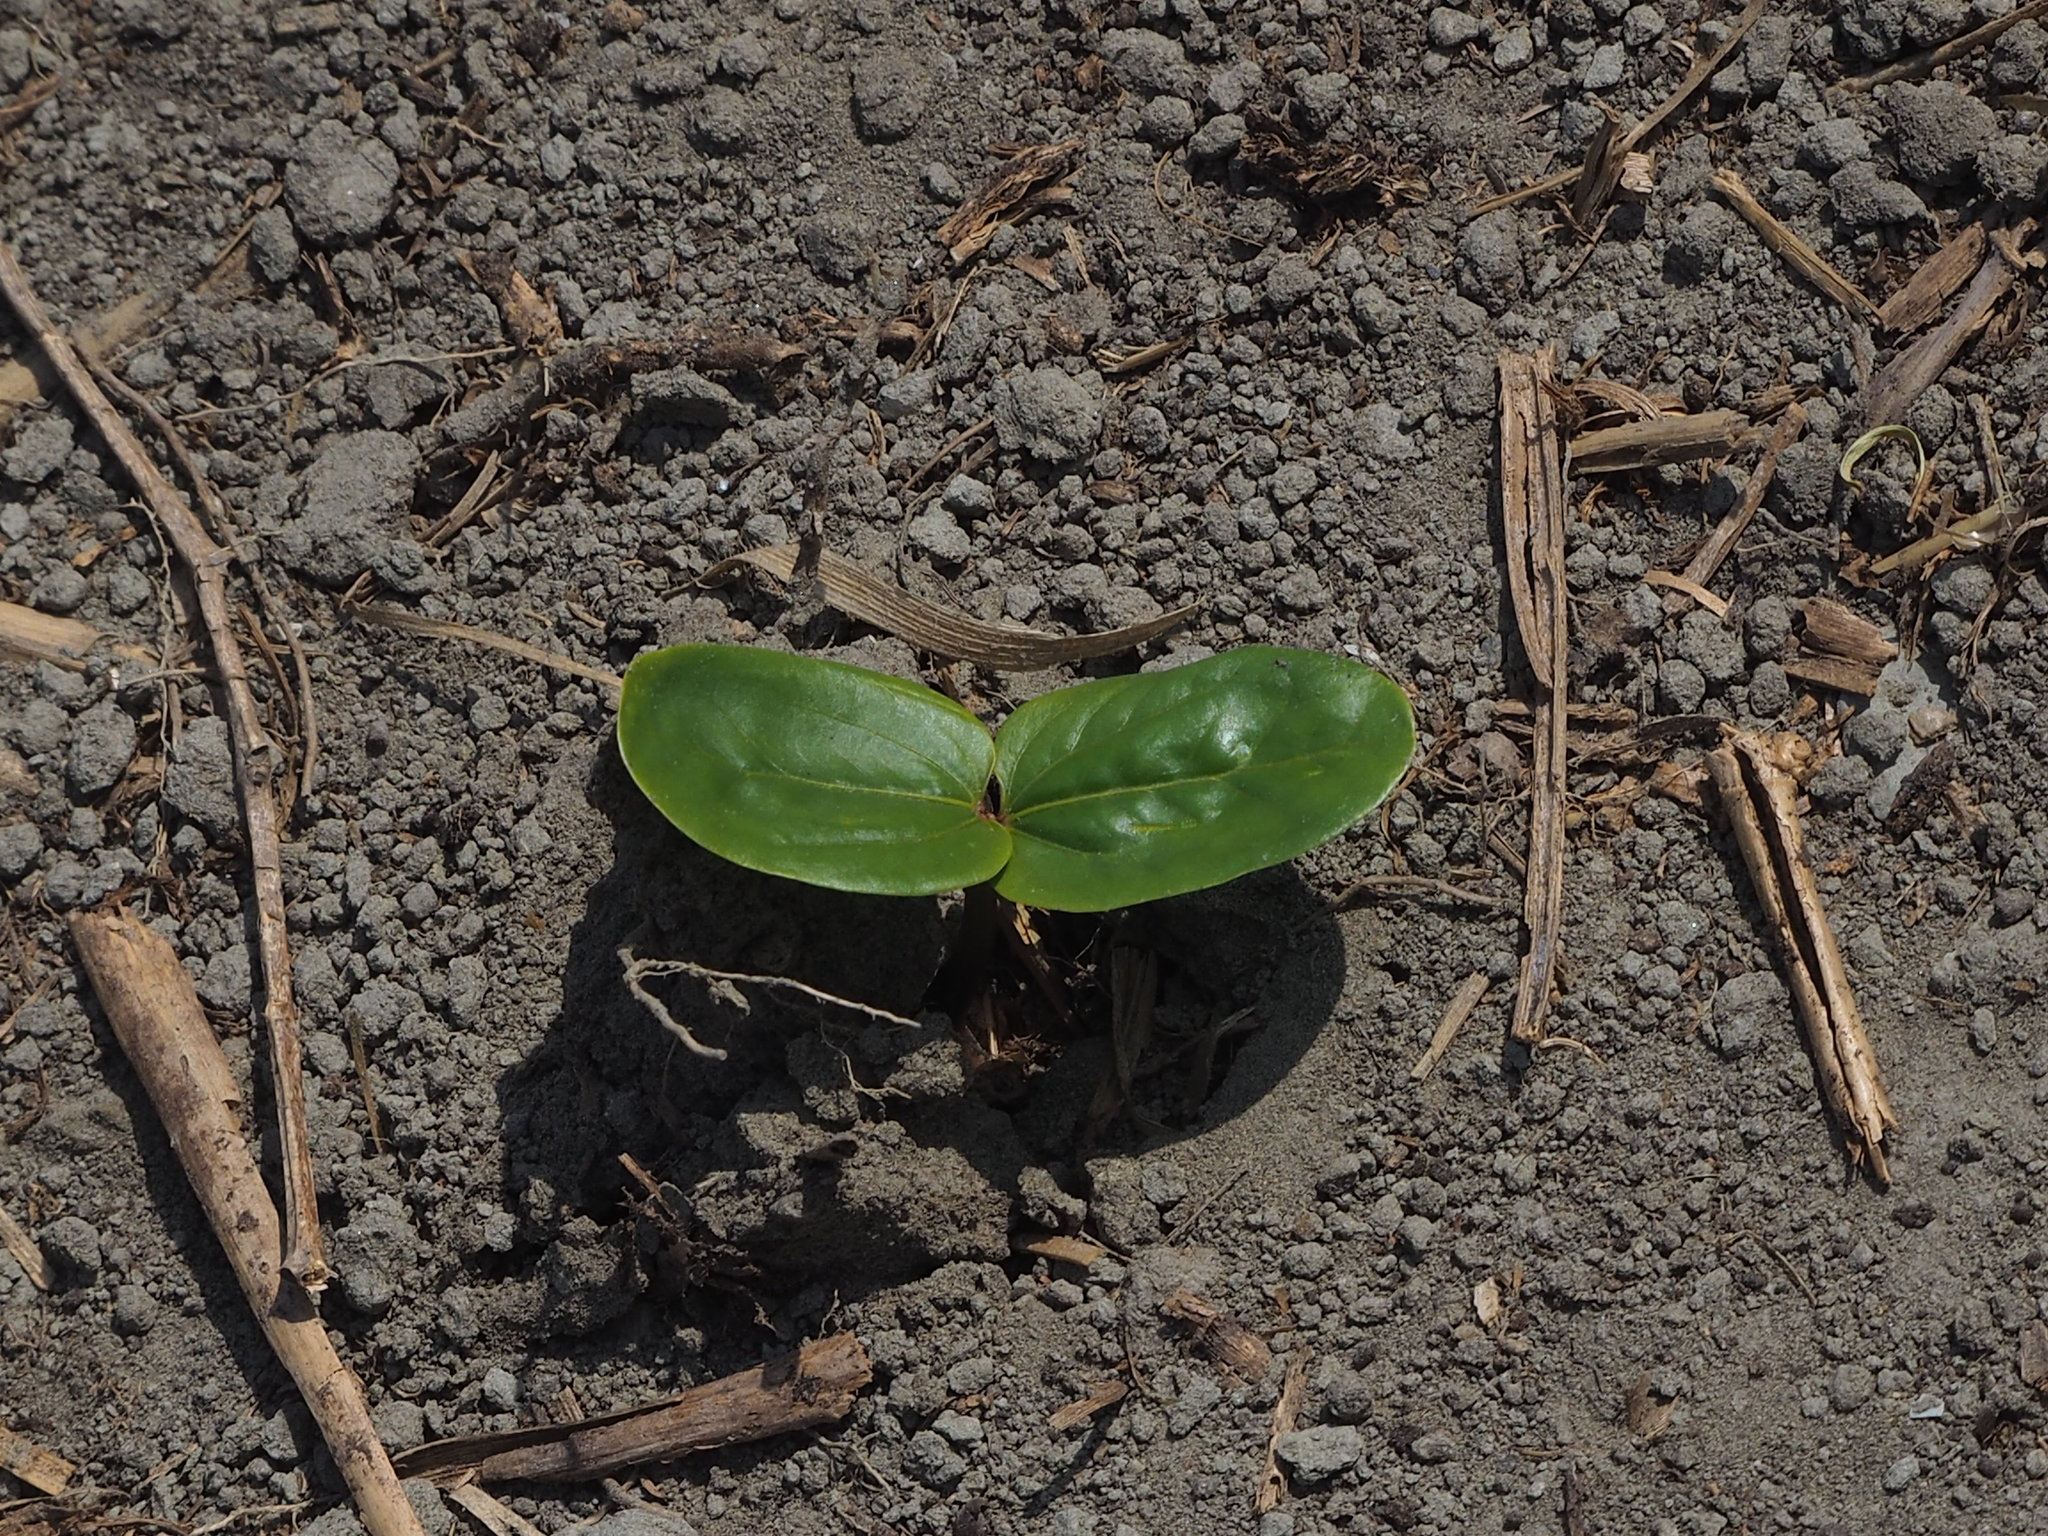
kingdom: Plantae
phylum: Tracheophyta
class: Magnoliopsida
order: Malpighiales
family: Euphorbiaceae
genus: Ricinus
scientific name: Ricinus communis
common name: Castor-oil-plant
